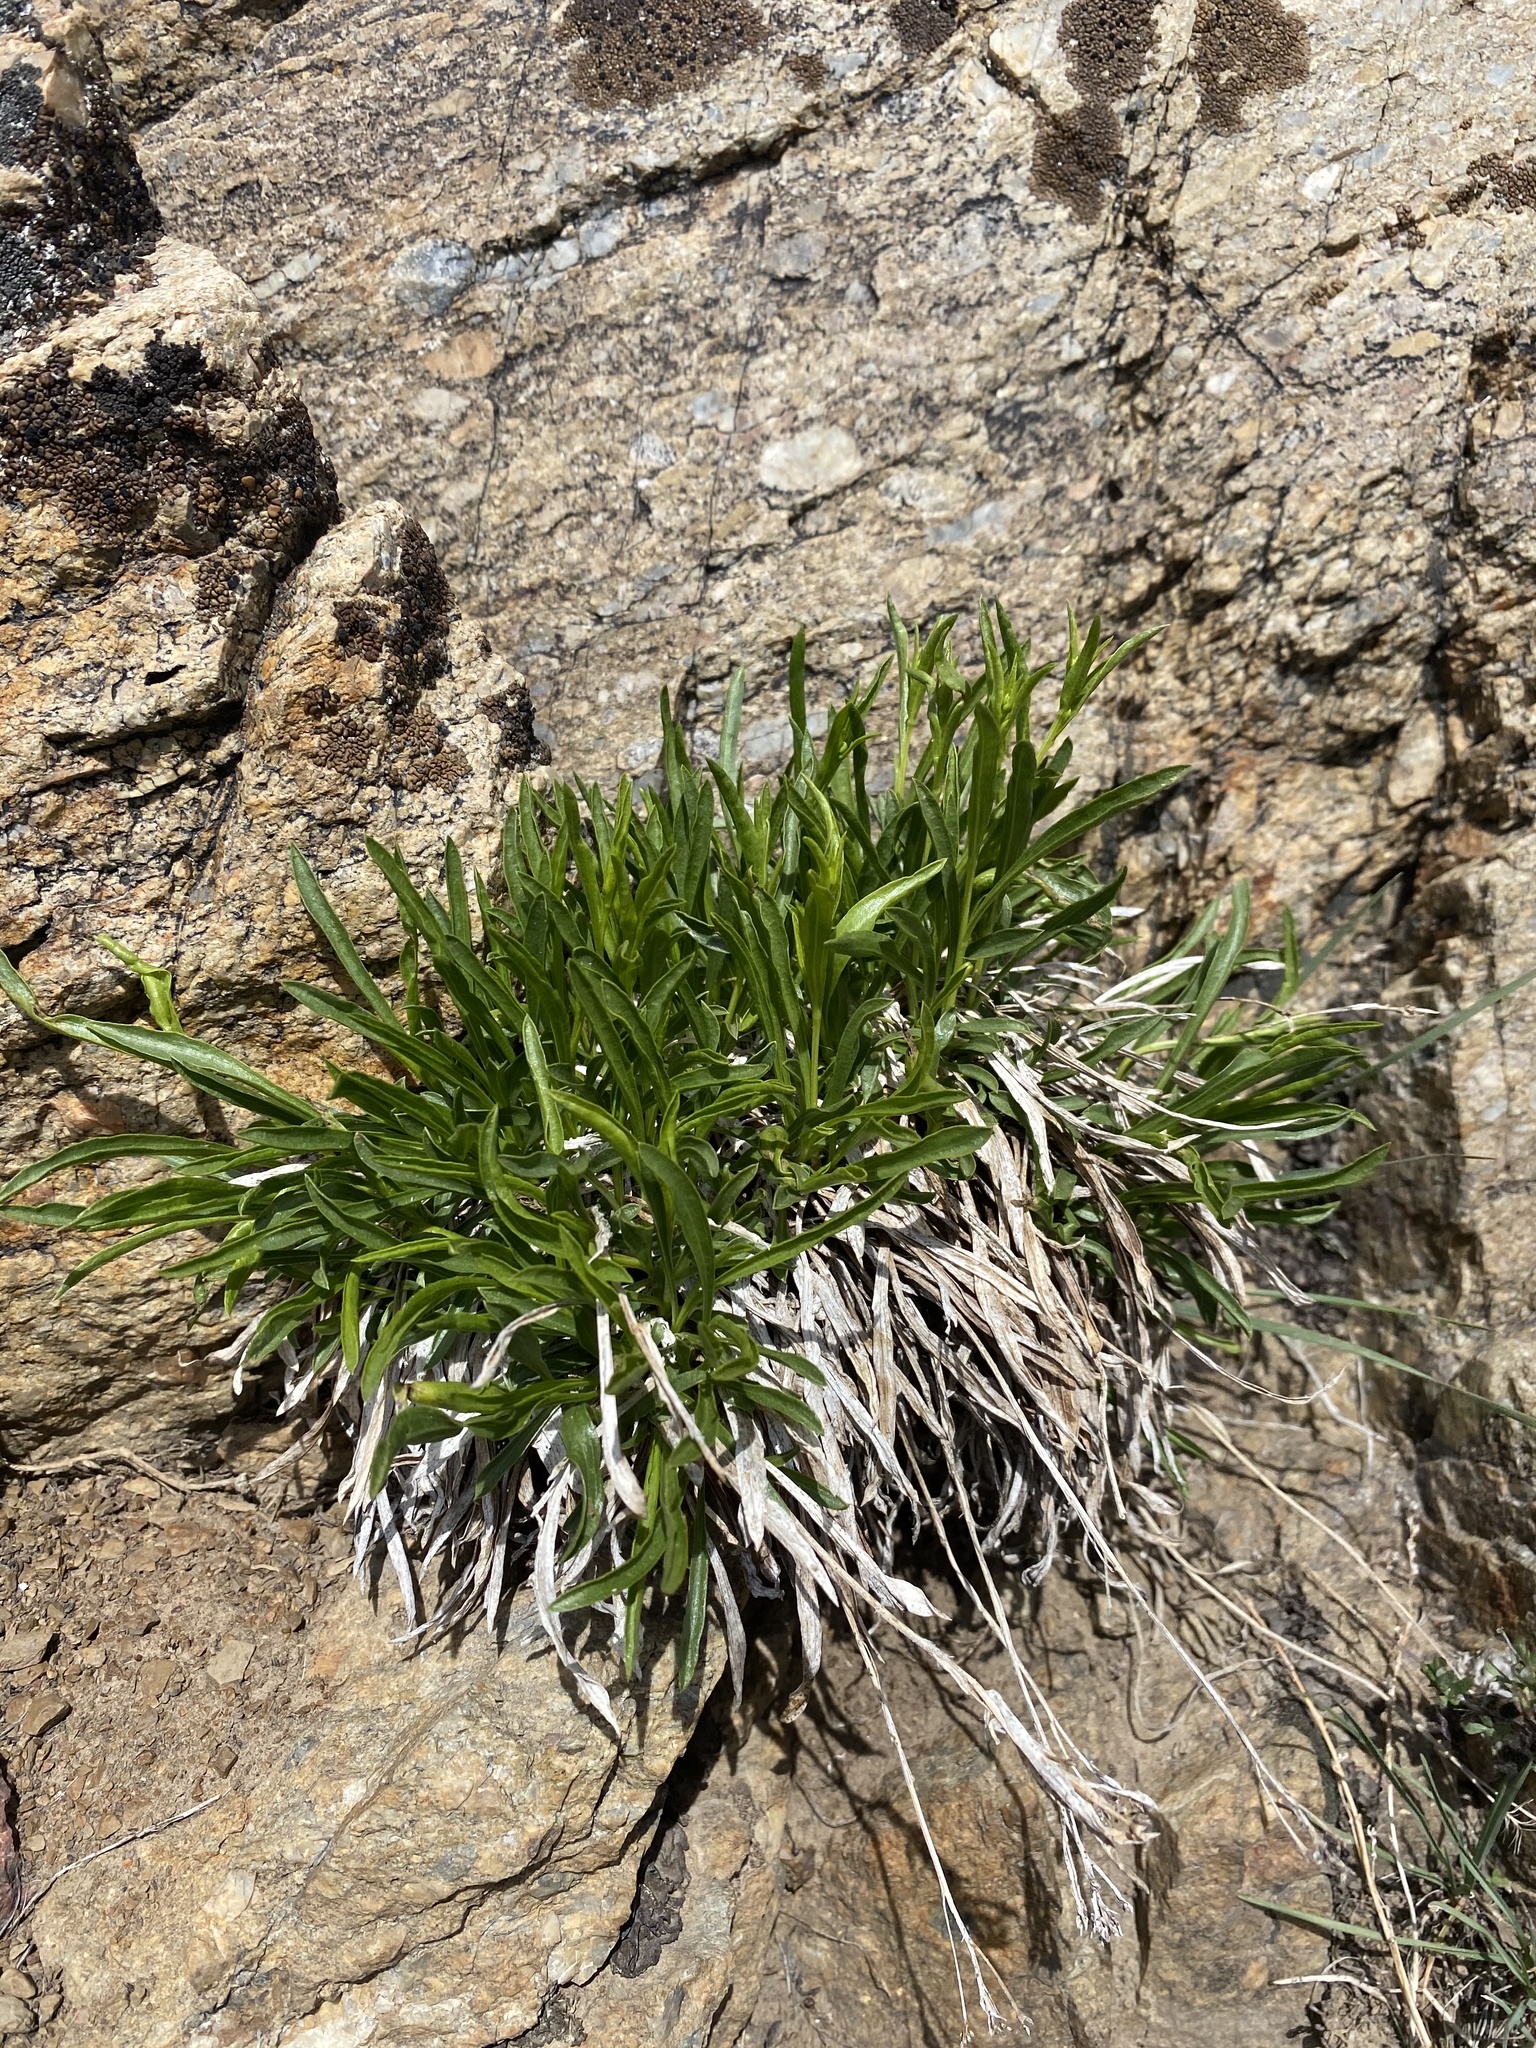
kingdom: Plantae
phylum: Tracheophyta
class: Magnoliopsida
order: Asterales
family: Asteraceae
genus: Petradoria
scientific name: Petradoria pumila
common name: Rock-goldenrod
